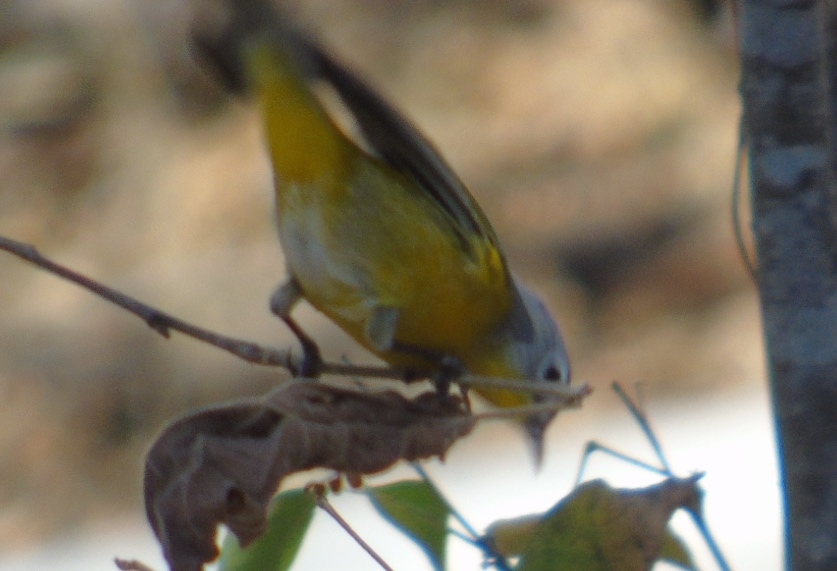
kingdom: Animalia
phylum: Chordata
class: Aves
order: Passeriformes
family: Parulidae
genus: Leiothlypis
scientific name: Leiothlypis ruficapilla
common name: Nashville warbler
